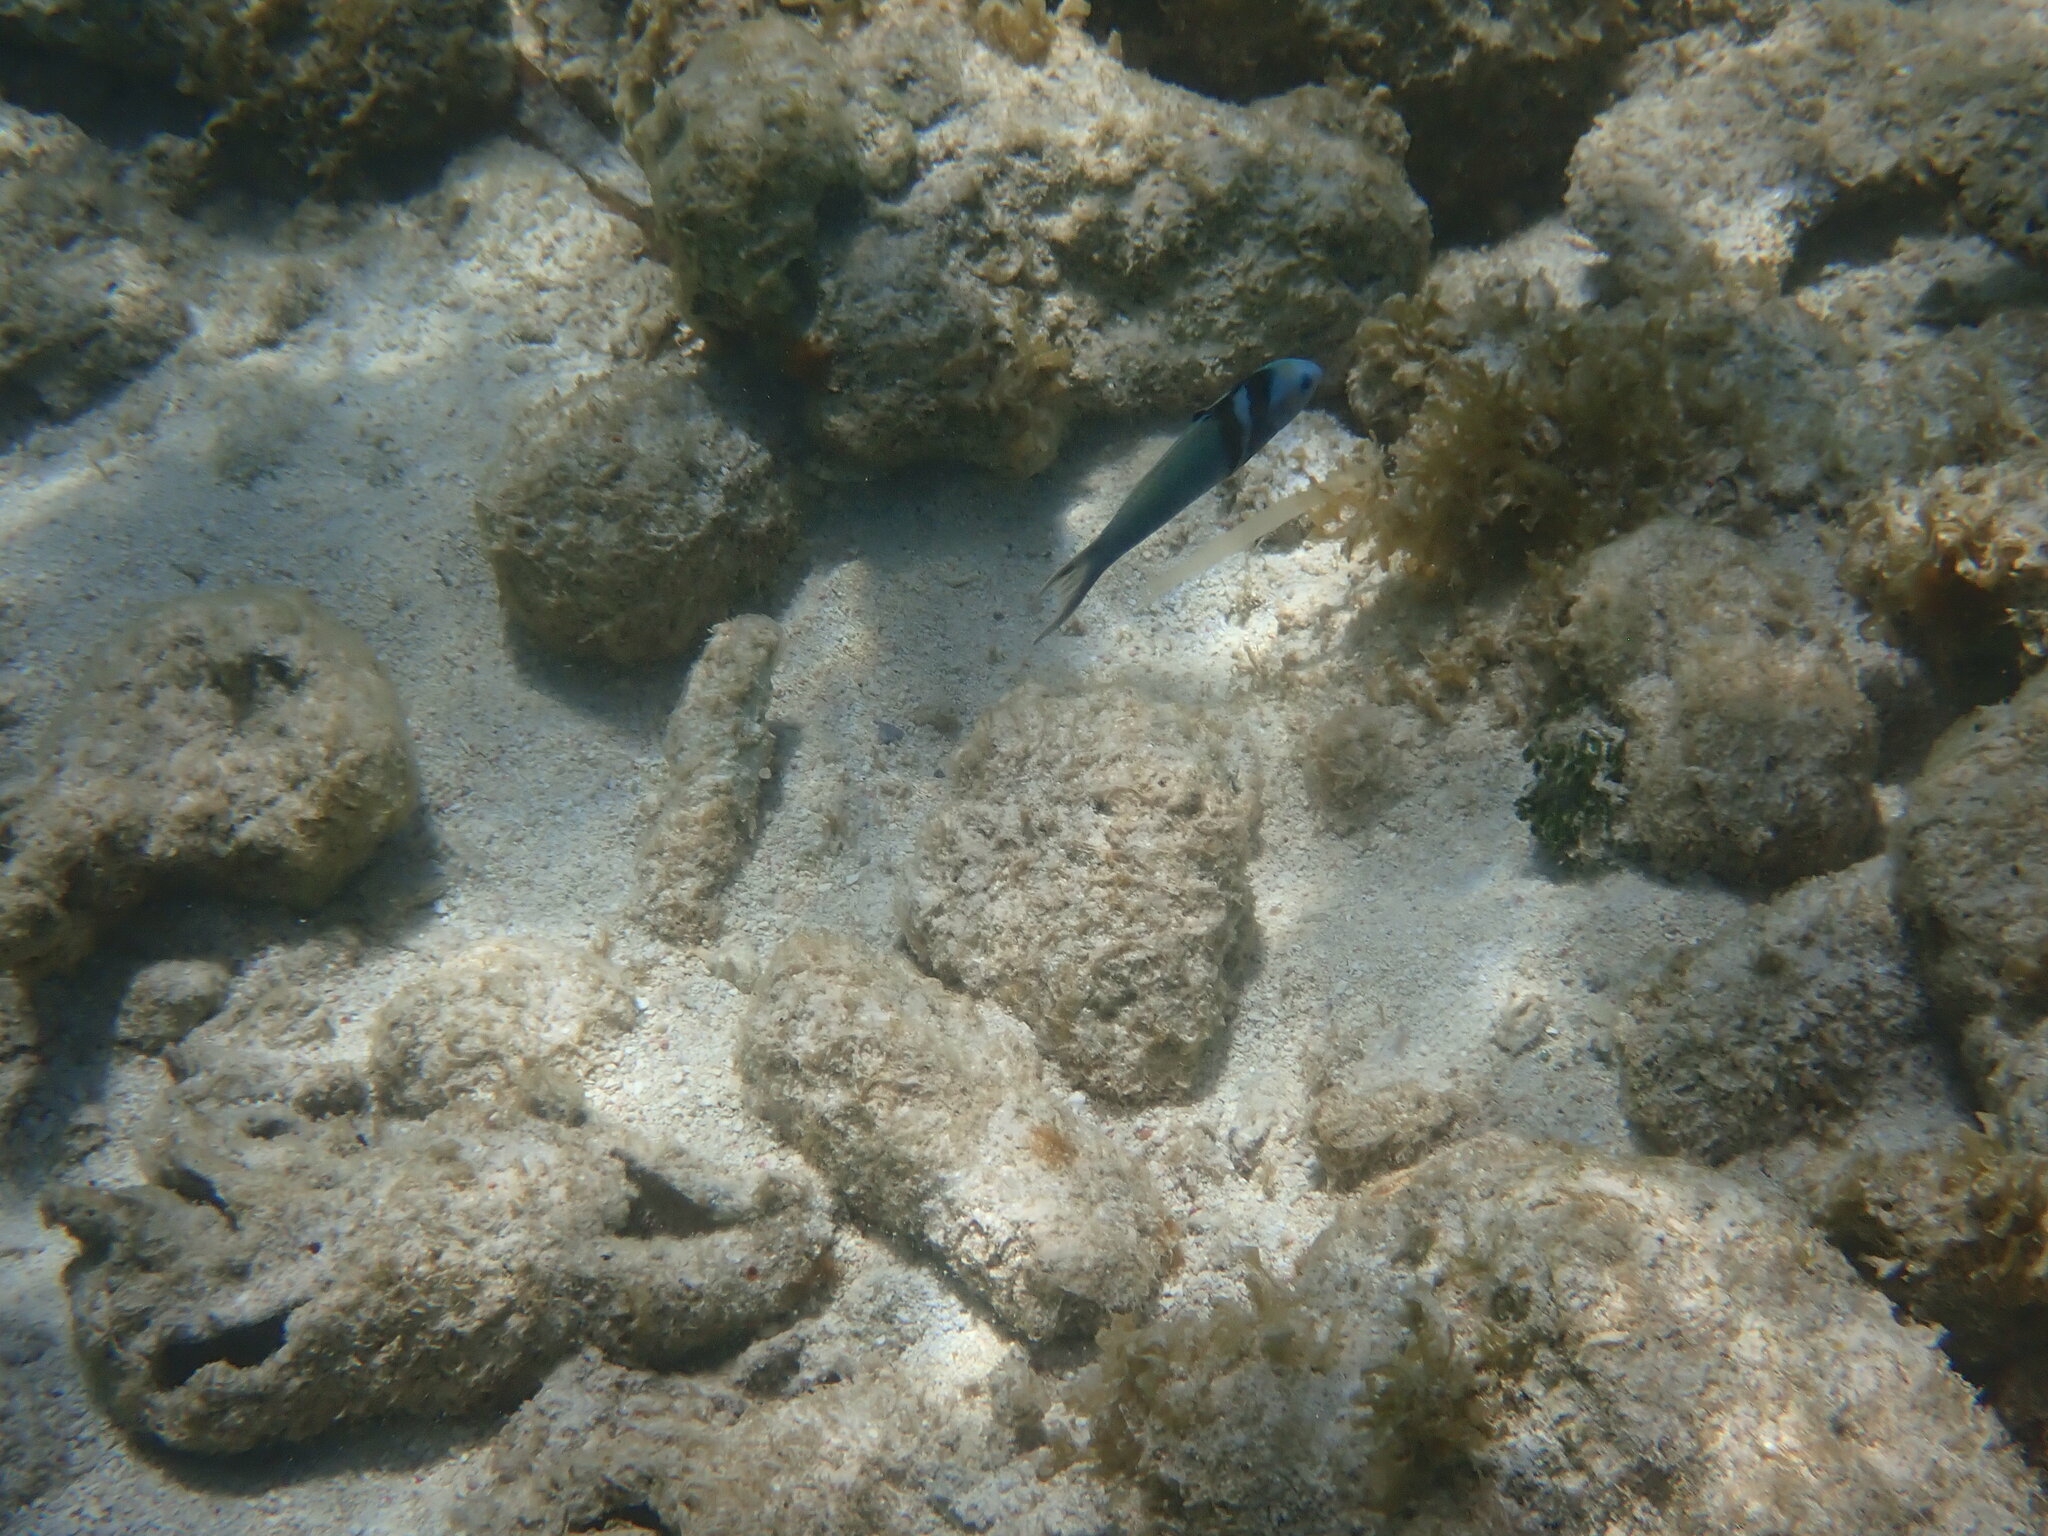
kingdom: Animalia
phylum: Chordata
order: Perciformes
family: Labridae
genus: Thalassoma
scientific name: Thalassoma bifasciatum
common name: Bluehead wrasse
